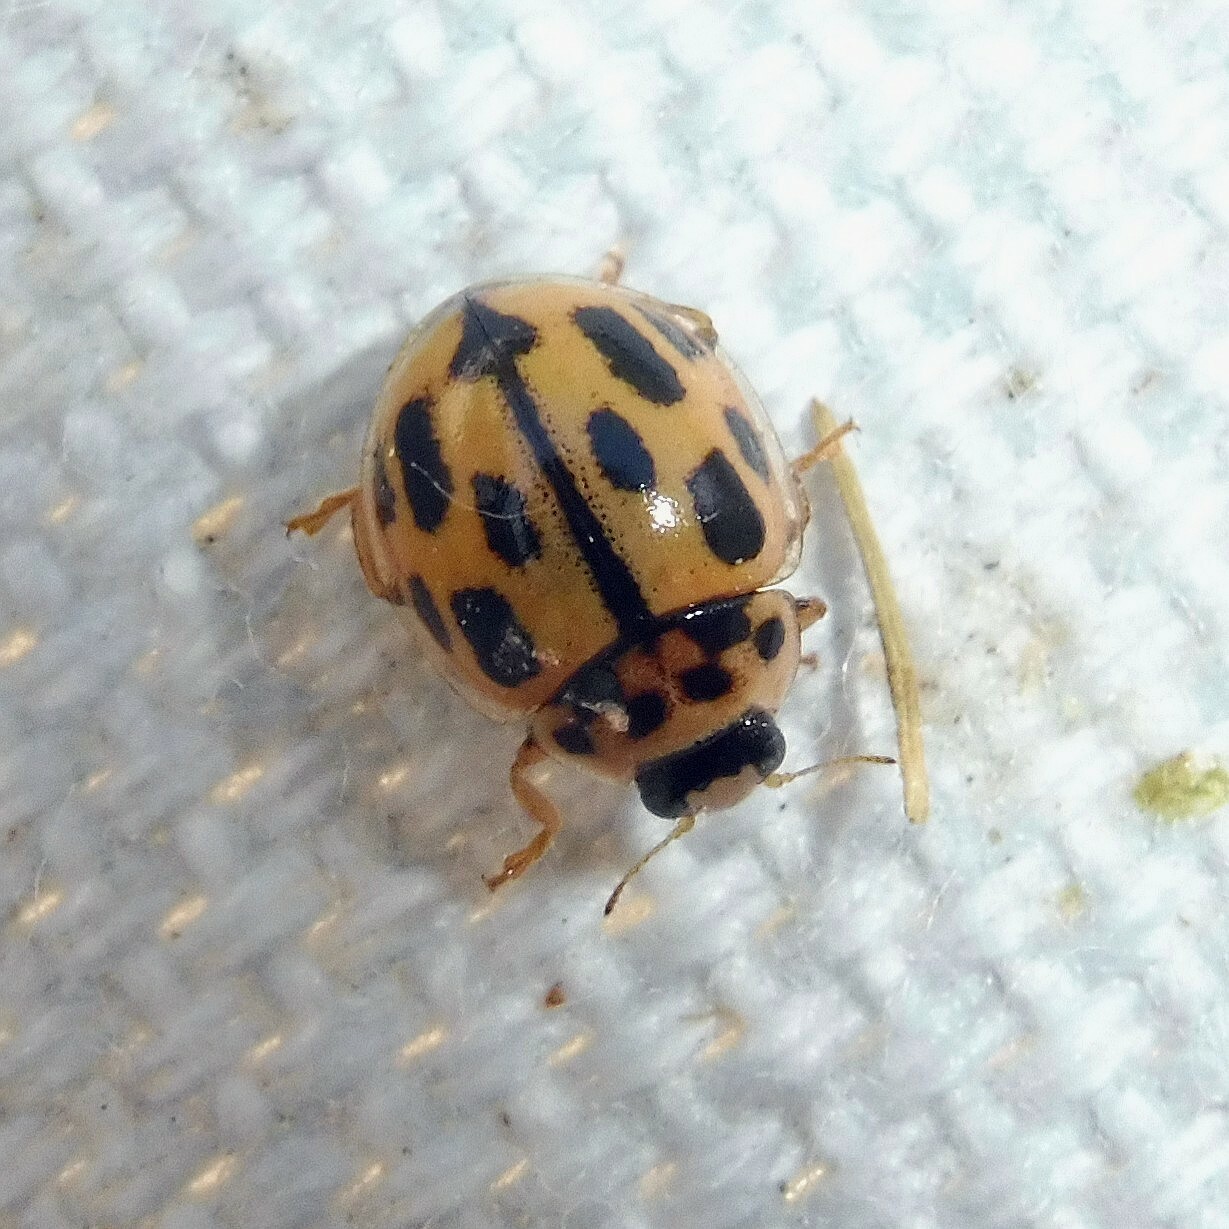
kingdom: Animalia
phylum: Arthropoda
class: Insecta
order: Coleoptera
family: Coccinellidae
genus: Propylaea
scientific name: Propylaea quatuordecimpunctata
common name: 14-spotted ladybird beetle
